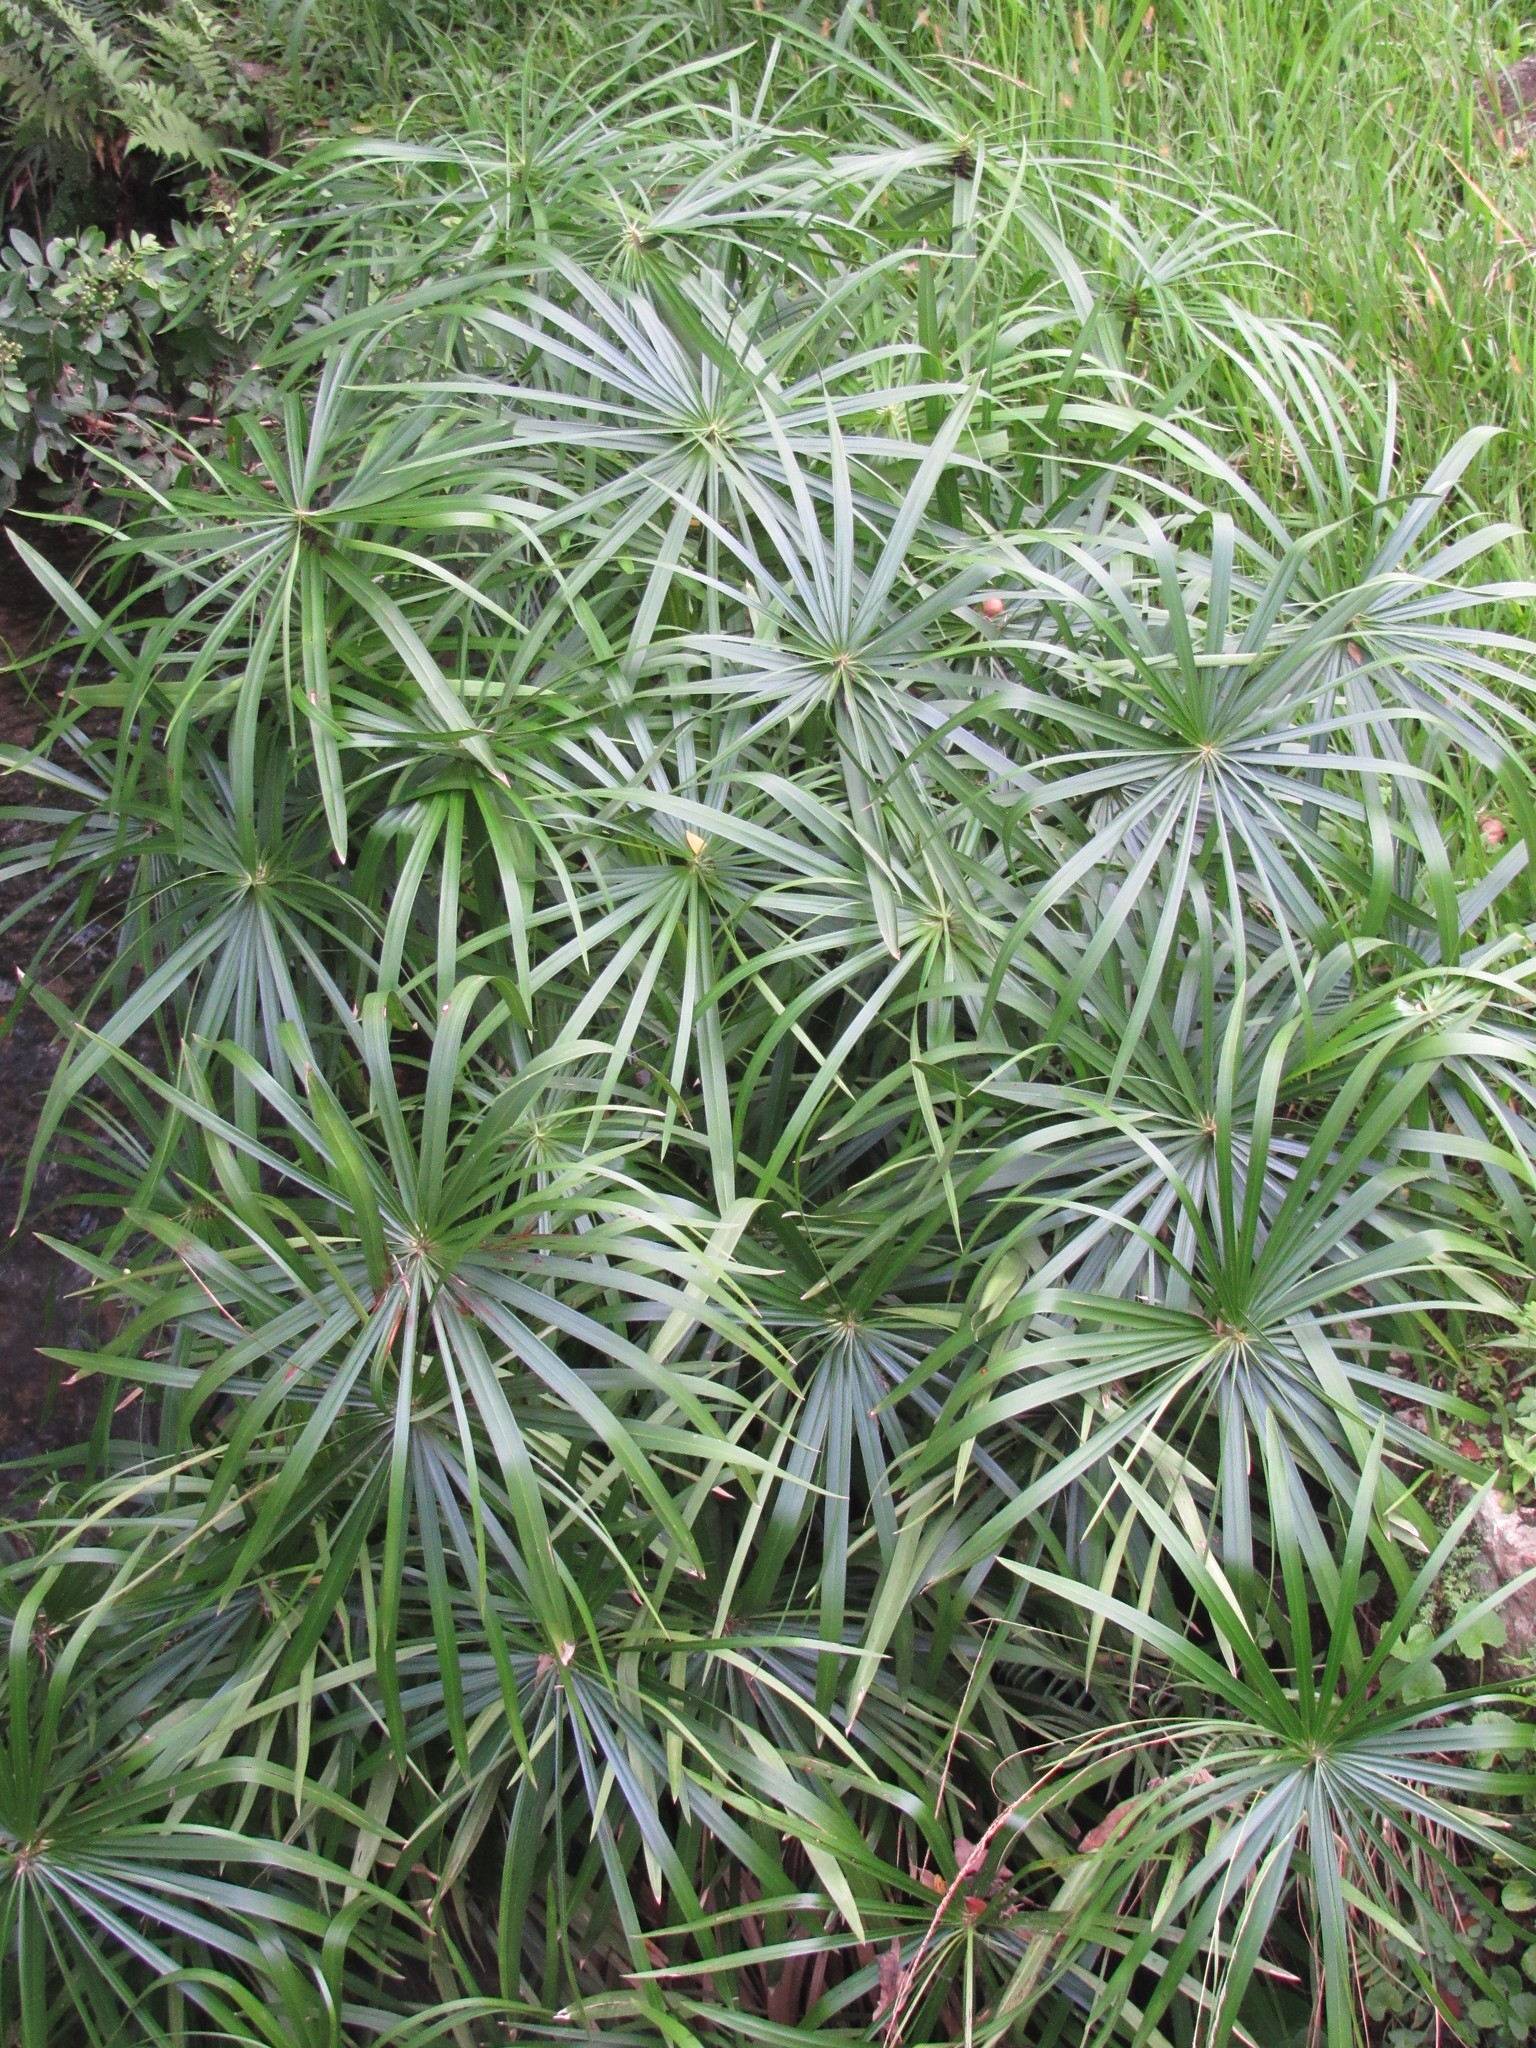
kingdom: Plantae
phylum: Tracheophyta
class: Liliopsida
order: Poales
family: Cyperaceae
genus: Cyperus
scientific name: Cyperus alternifolius
